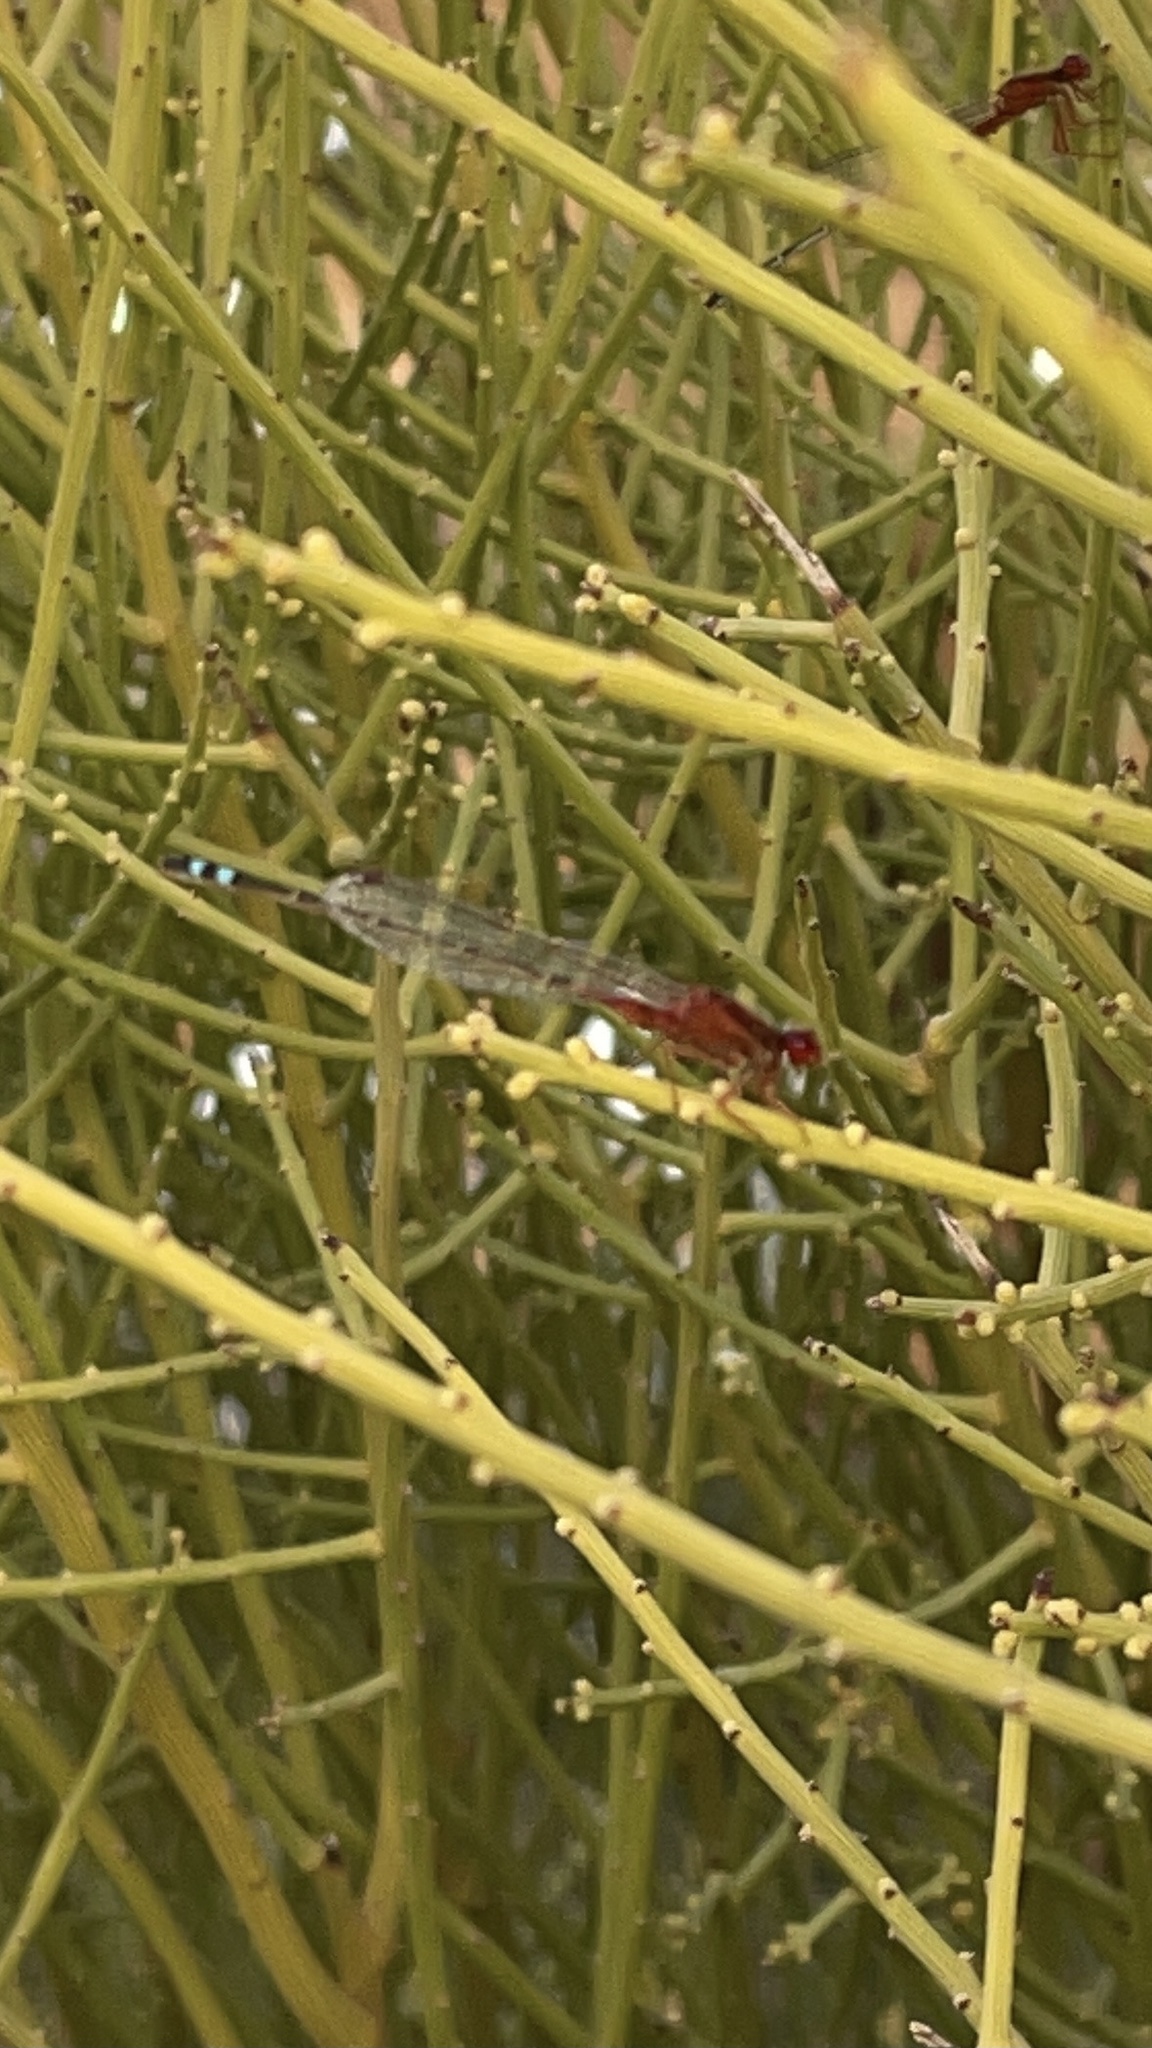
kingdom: Animalia
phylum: Arthropoda
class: Insecta
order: Odonata
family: Coenagrionidae
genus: Xanthagrion
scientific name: Xanthagrion erythroneurum
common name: Red and blue damsel
